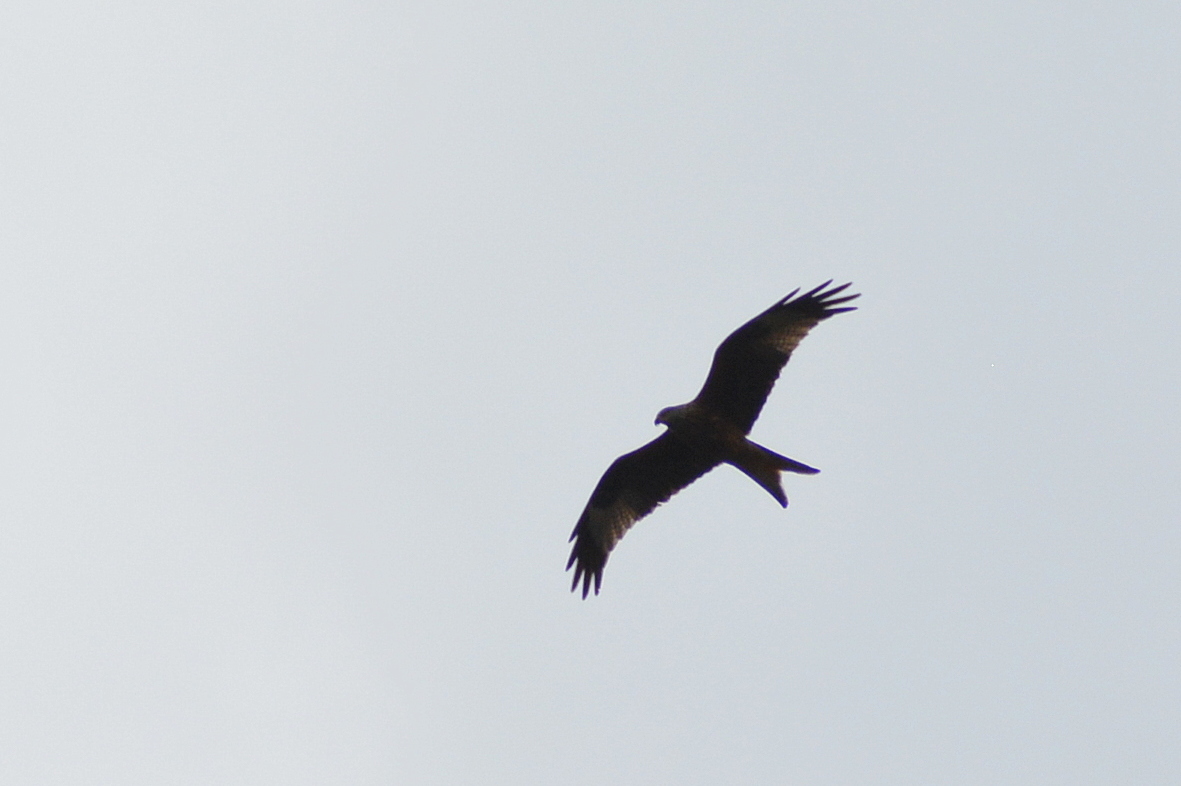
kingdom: Animalia
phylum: Chordata
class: Aves
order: Accipitriformes
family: Accipitridae
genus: Milvus
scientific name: Milvus milvus
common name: Red kite
